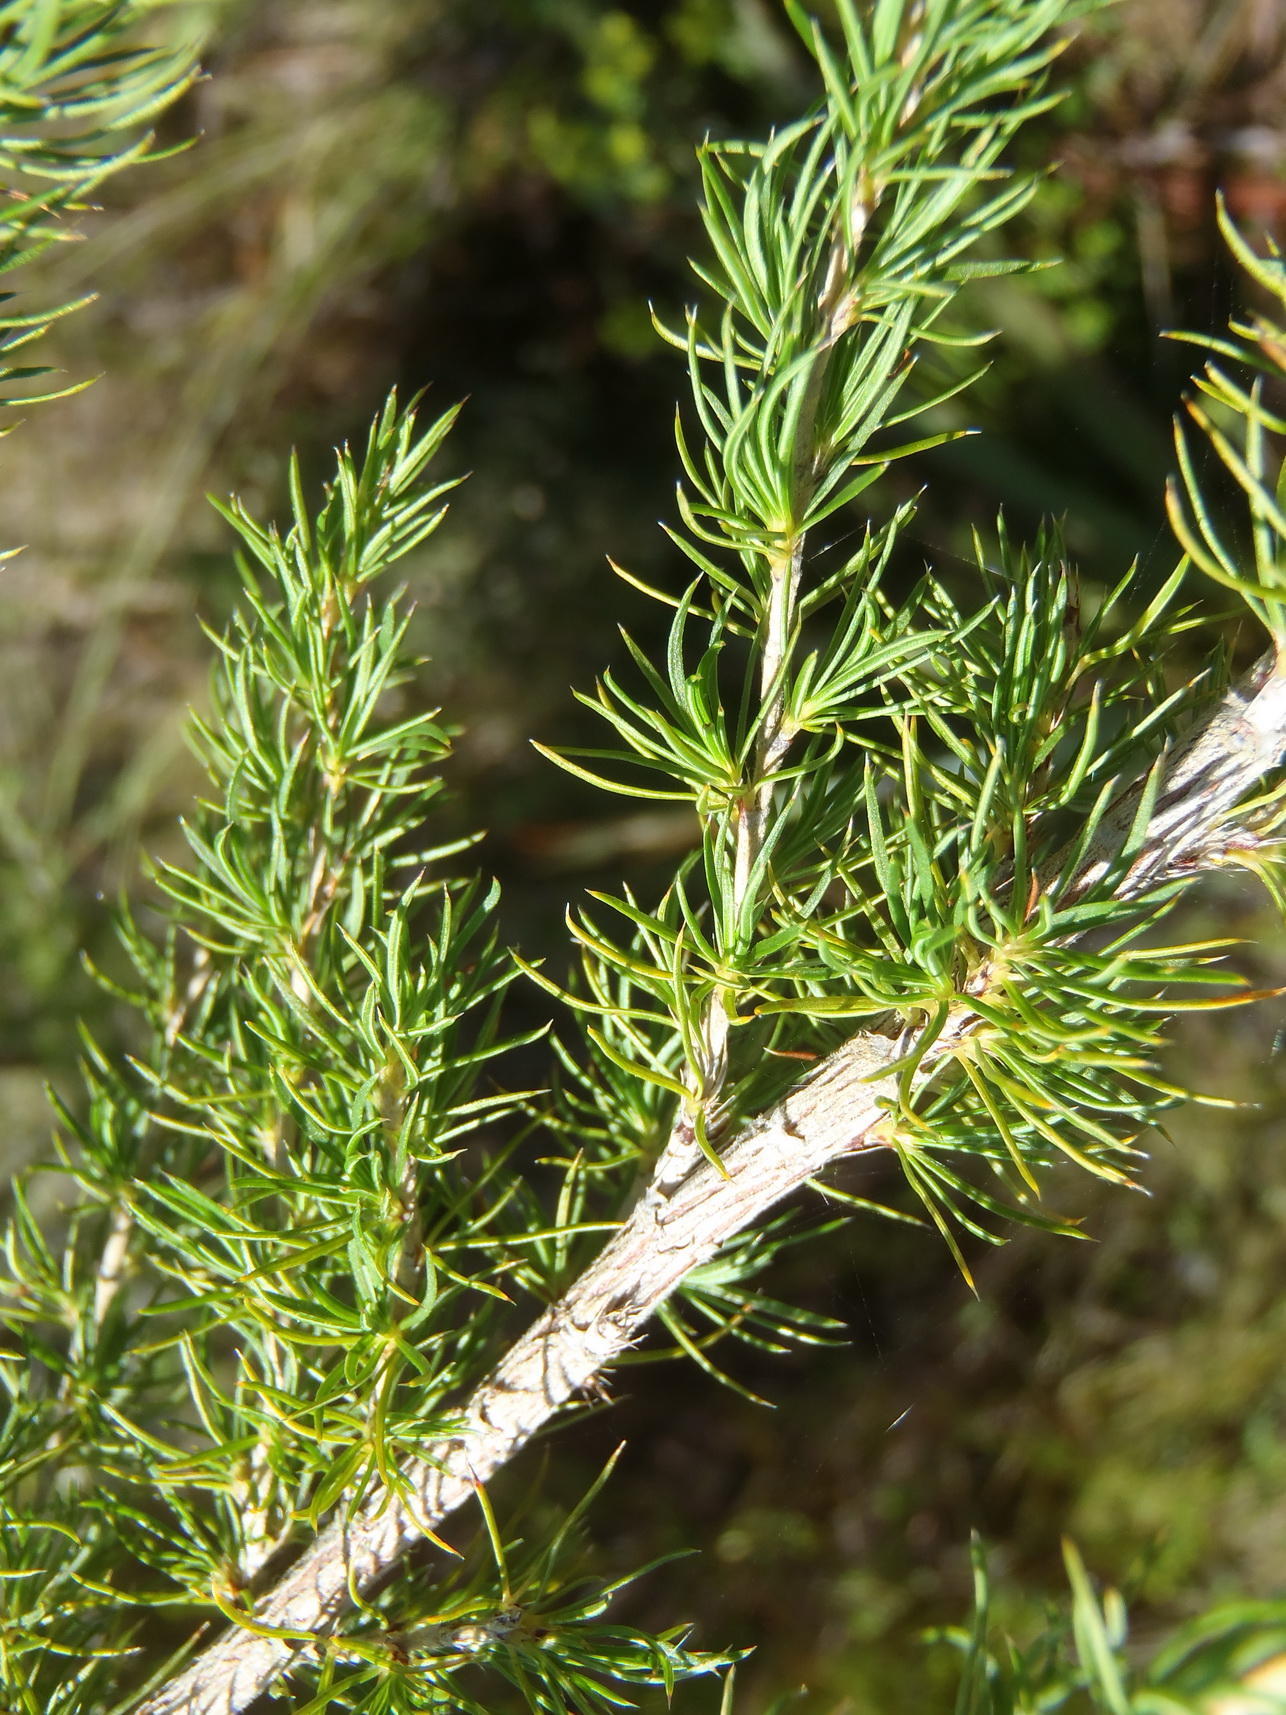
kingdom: Plantae
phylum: Tracheophyta
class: Magnoliopsida
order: Rosales
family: Rosaceae
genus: Cliffortia
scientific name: Cliffortia paucistaminea
